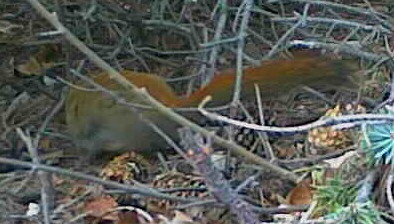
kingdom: Animalia
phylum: Chordata
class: Mammalia
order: Rodentia
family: Sciuridae
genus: Tamiasciurus
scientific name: Tamiasciurus hudsonicus
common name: Red squirrel
